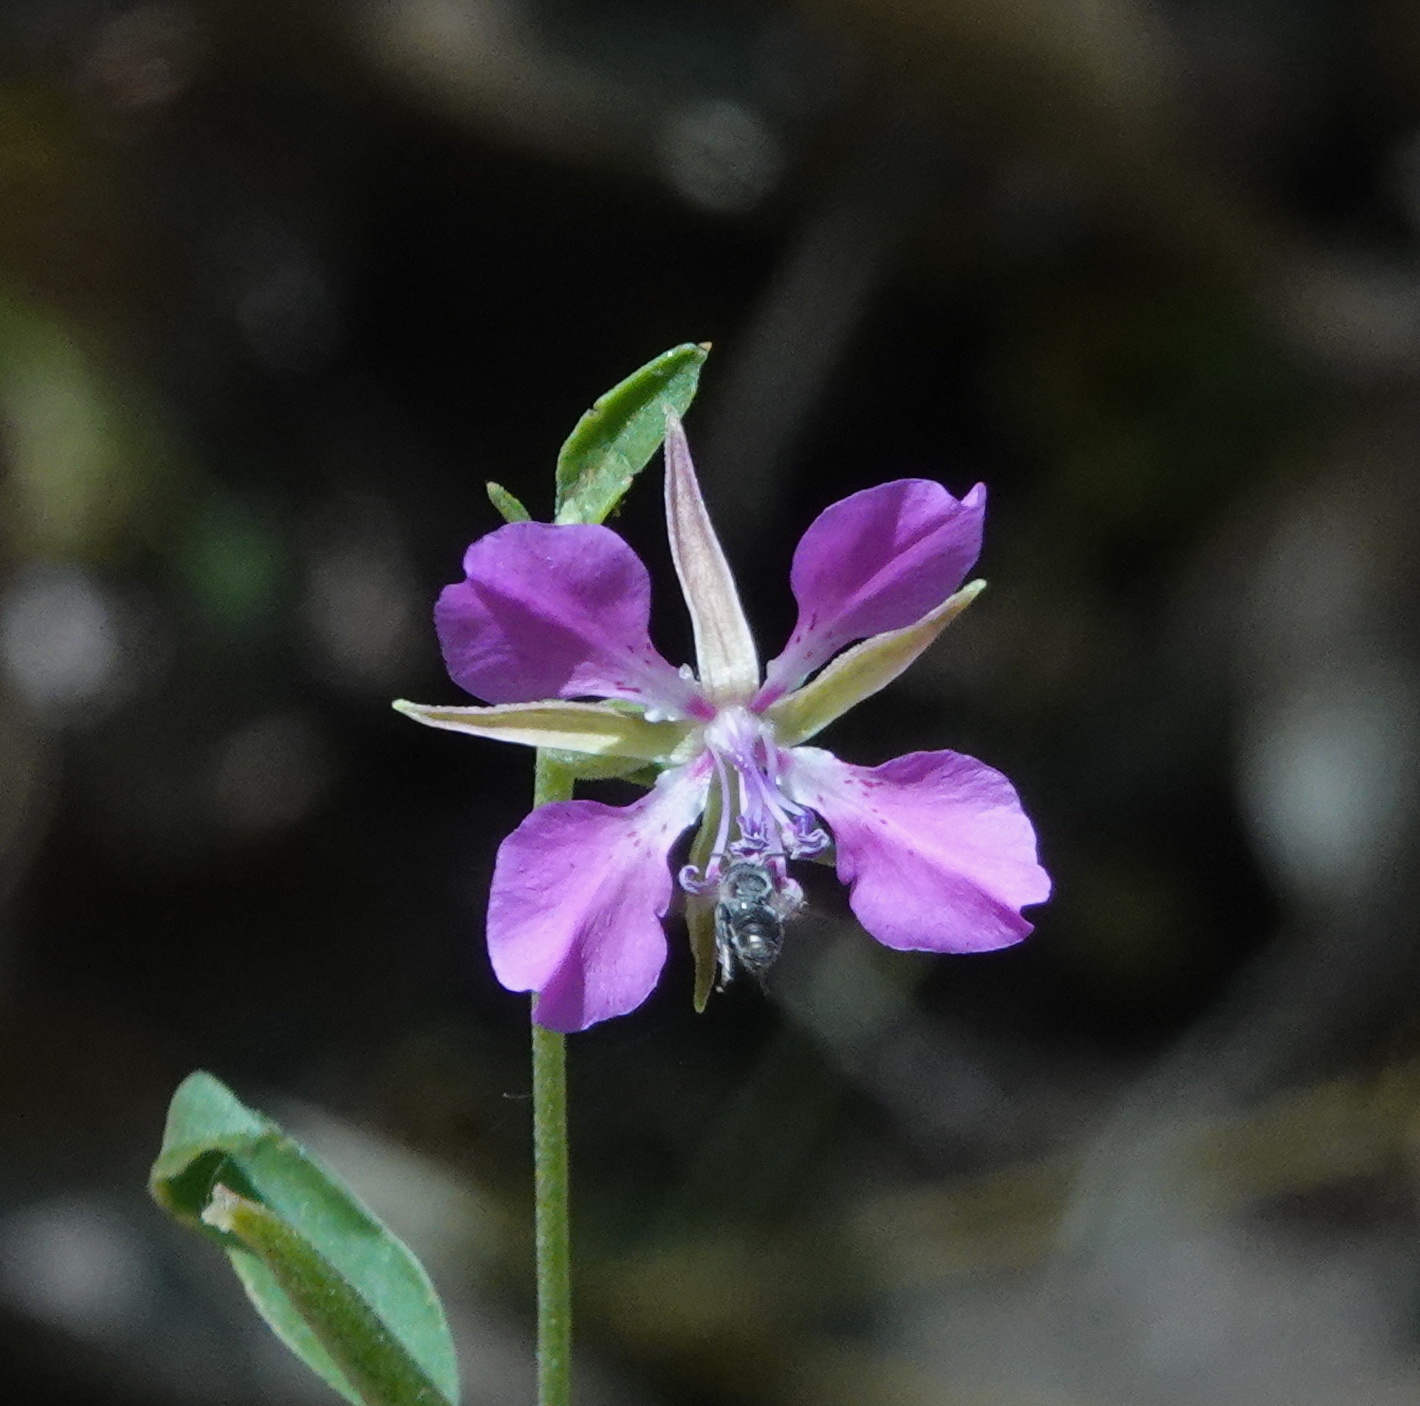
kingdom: Plantae
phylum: Tracheophyta
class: Magnoliopsida
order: Myrtales
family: Onagraceae
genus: Clarkia
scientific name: Clarkia rhomboidea
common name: Broadleaf clarkia
